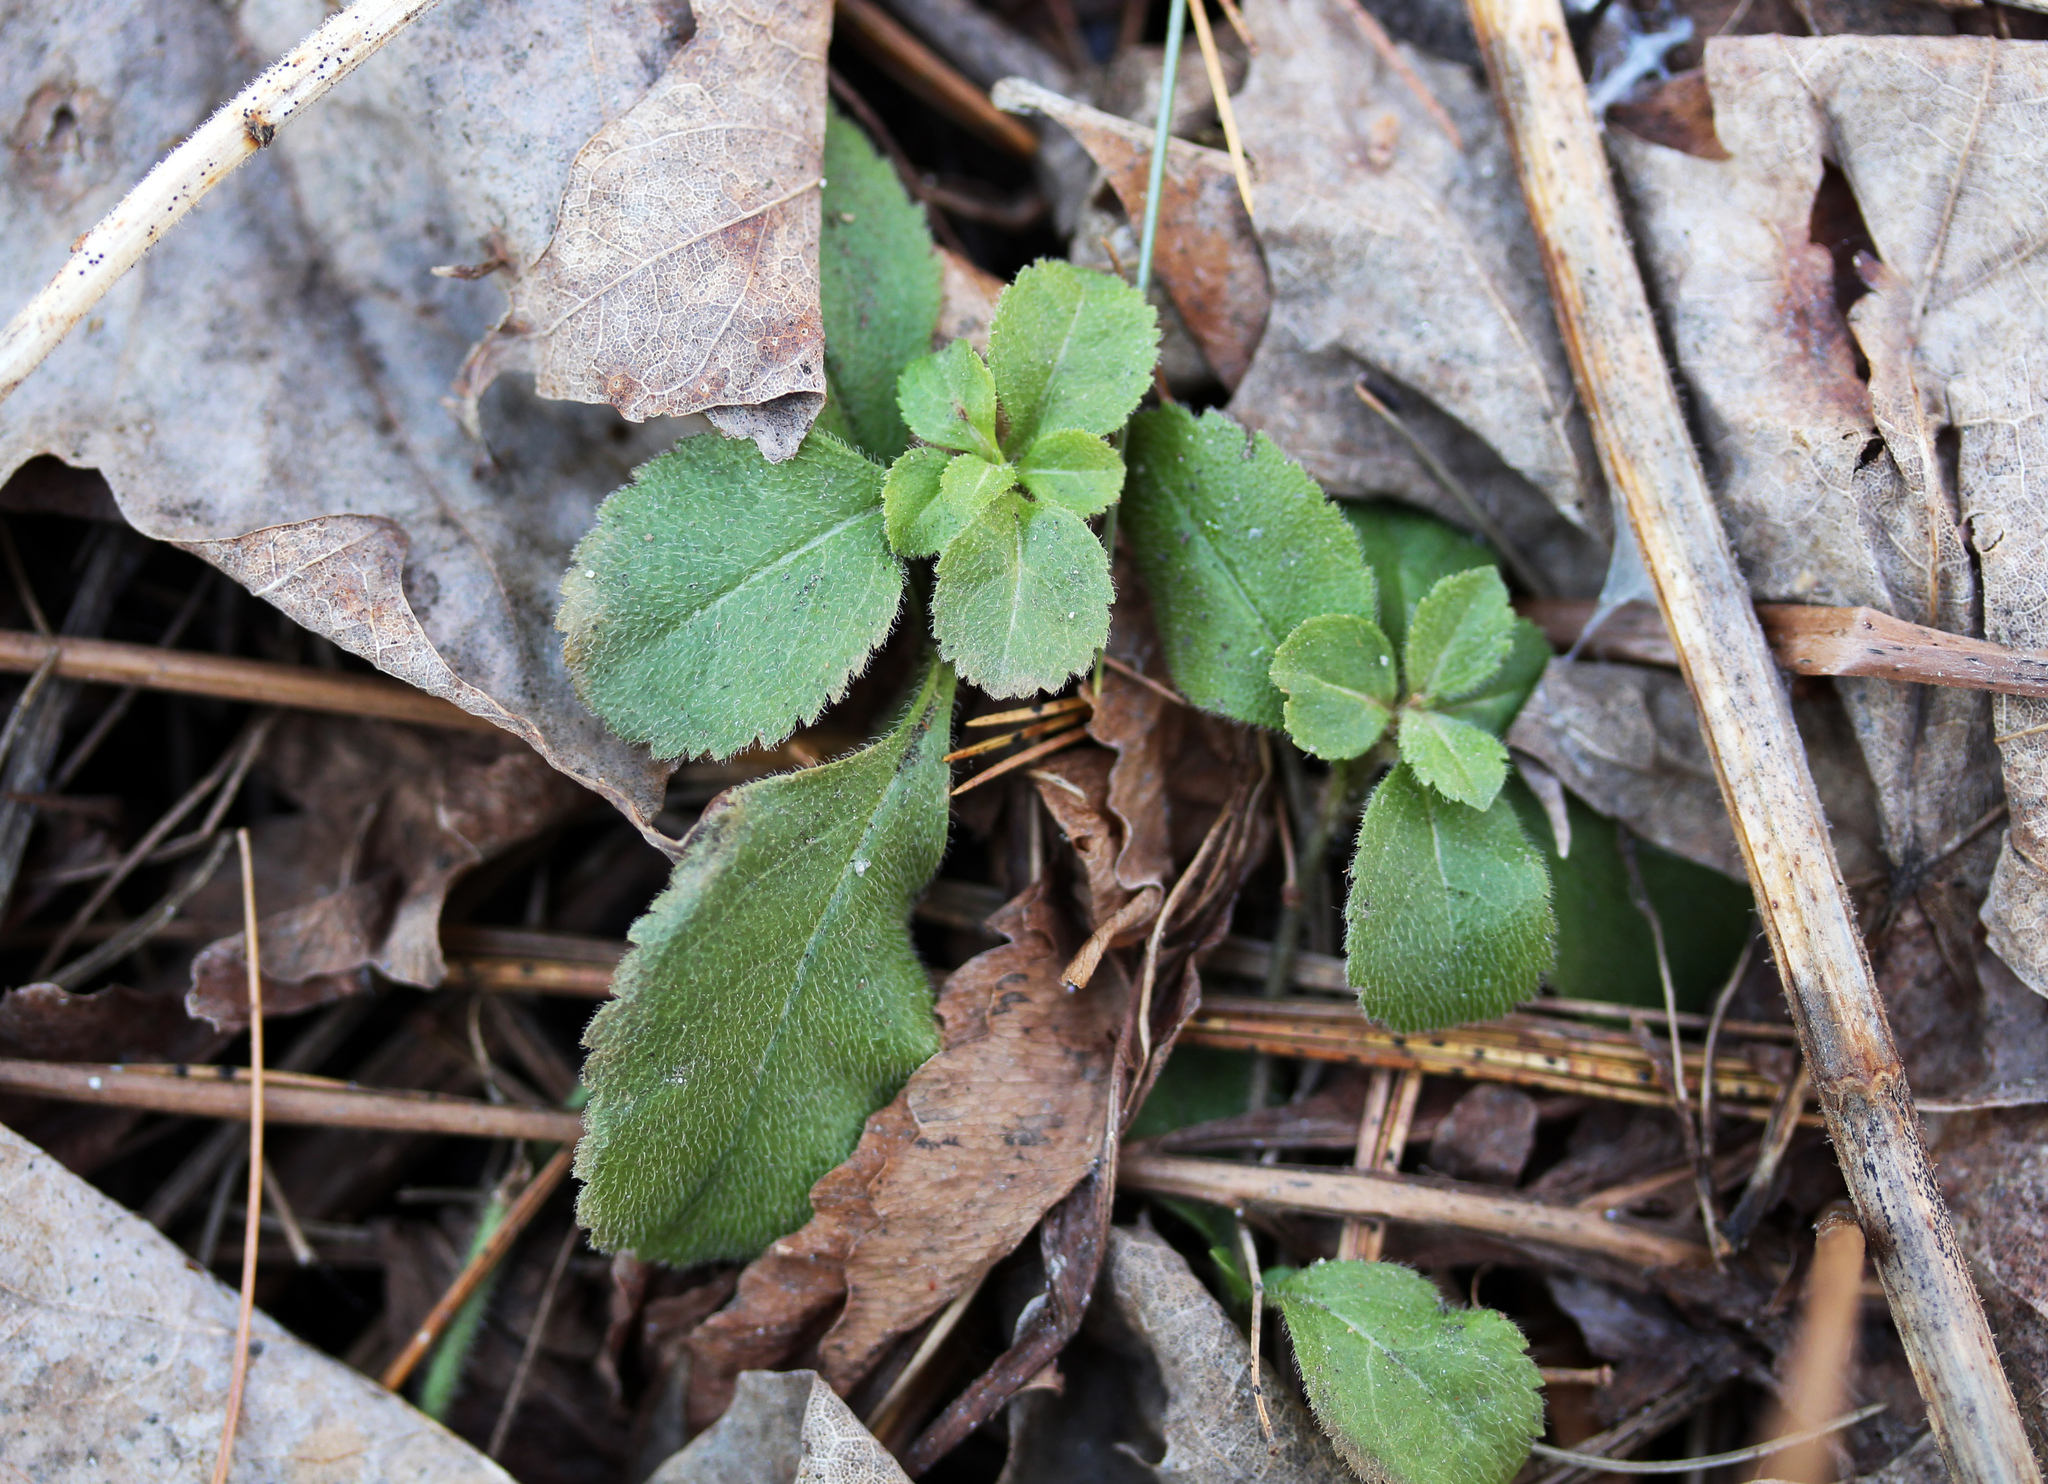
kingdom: Plantae
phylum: Tracheophyta
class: Magnoliopsida
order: Lamiales
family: Plantaginaceae
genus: Veronica
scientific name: Veronica officinalis
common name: Common speedwell
